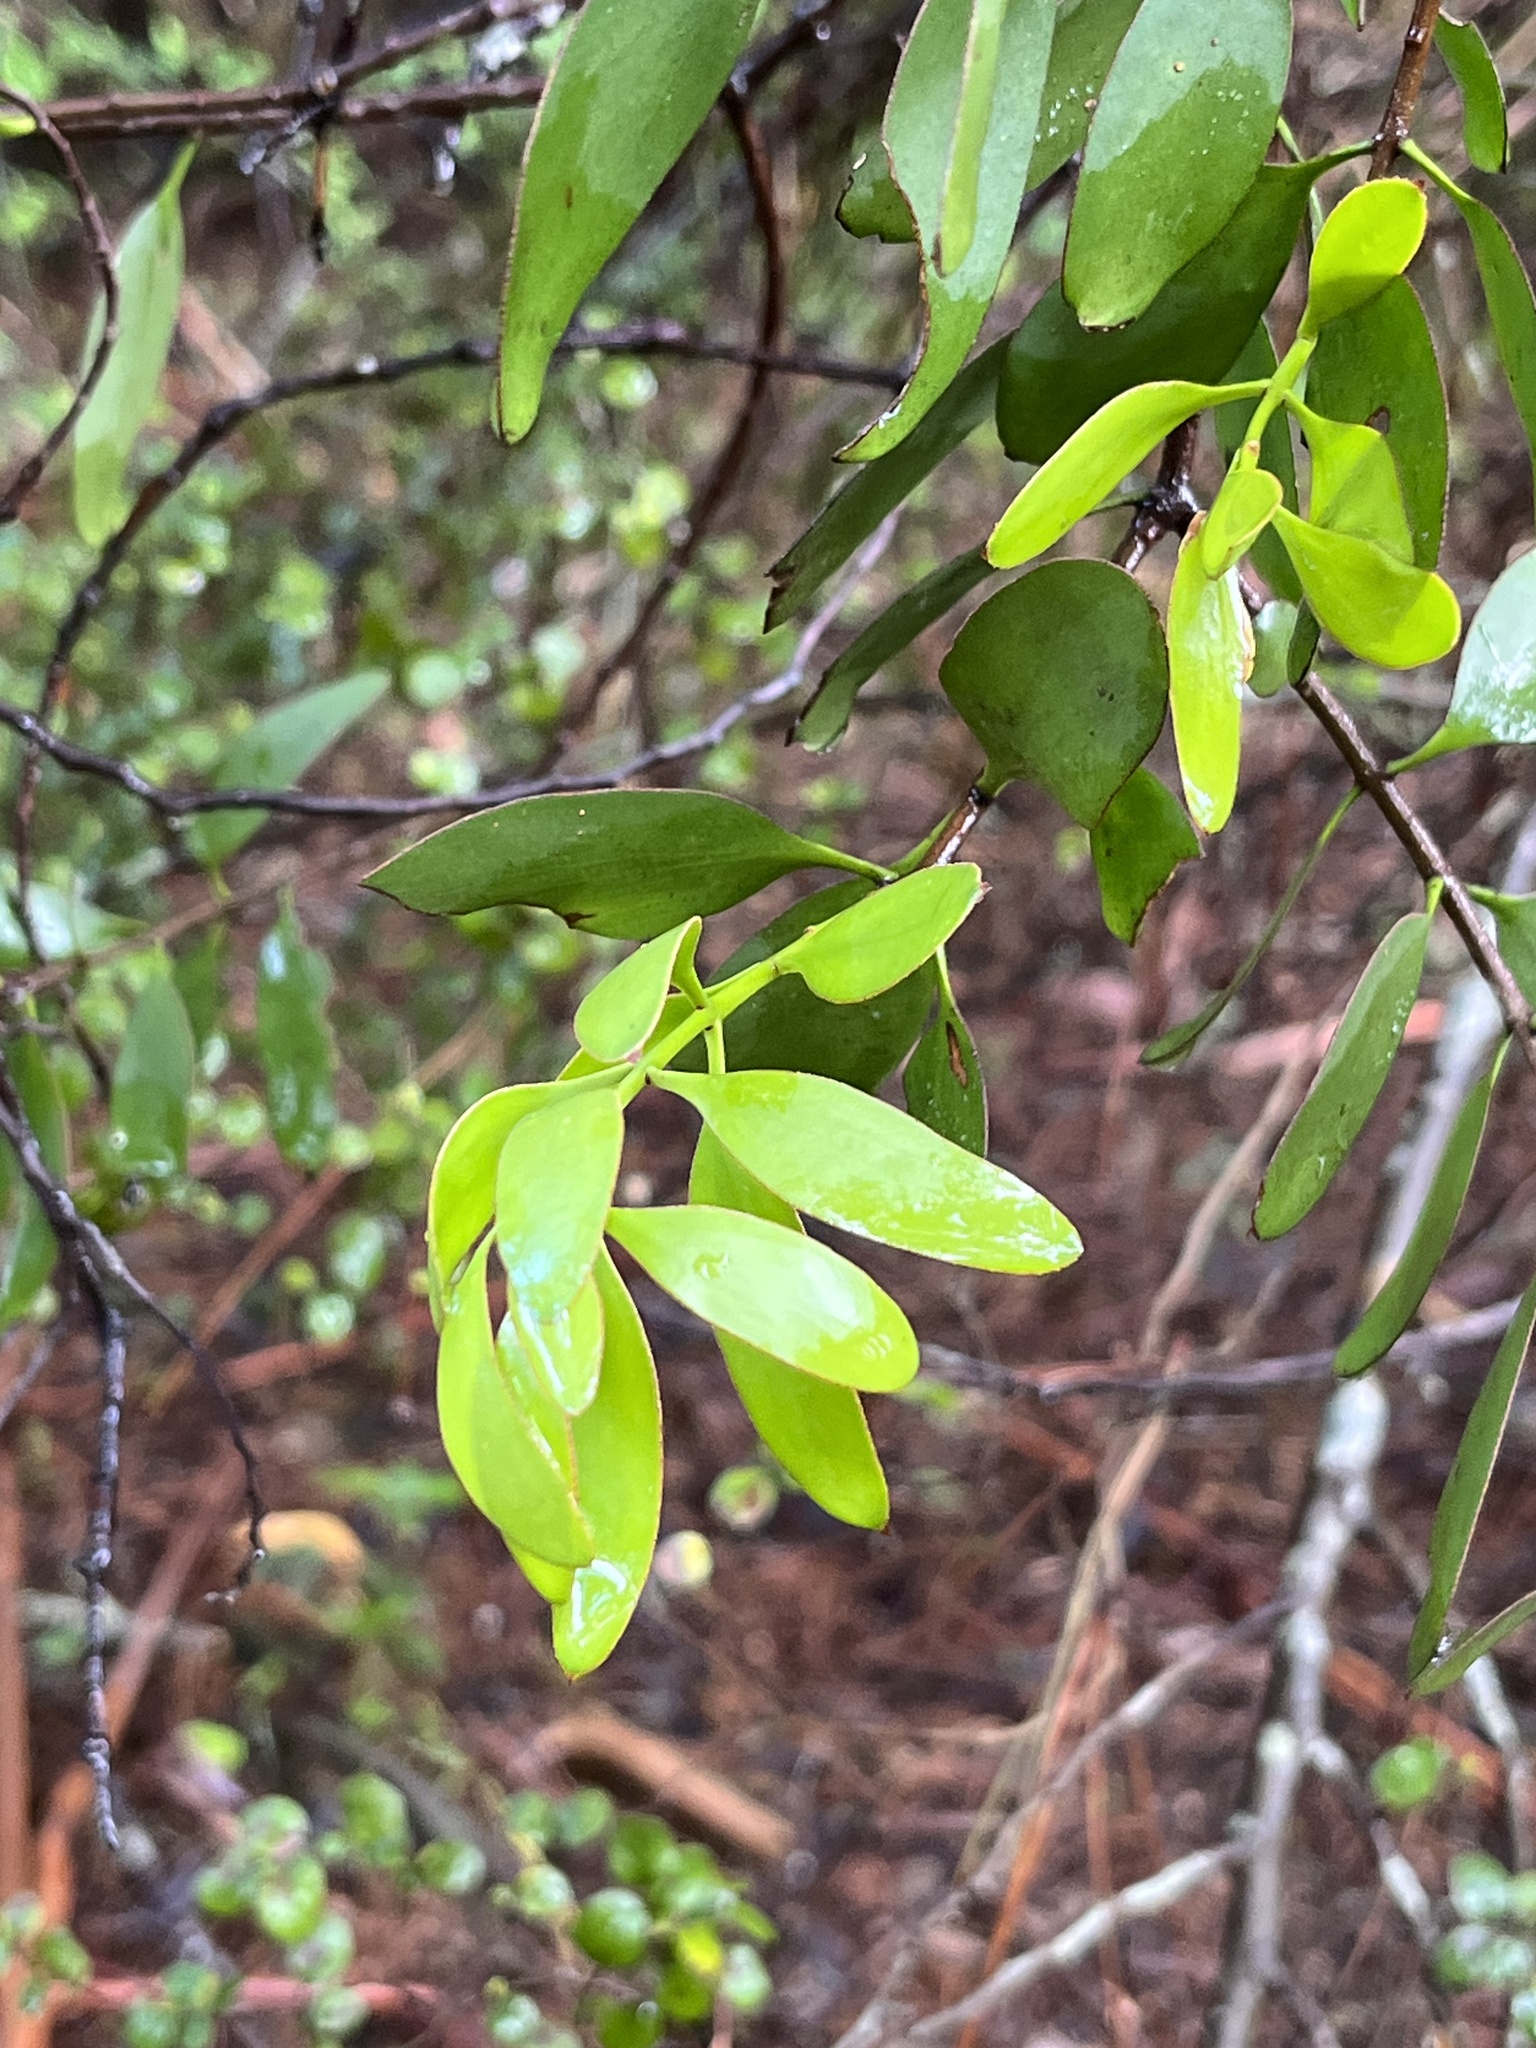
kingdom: Plantae
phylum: Tracheophyta
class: Magnoliopsida
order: Santalales
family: Loranthaceae
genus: Alepis
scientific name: Alepis flavida
